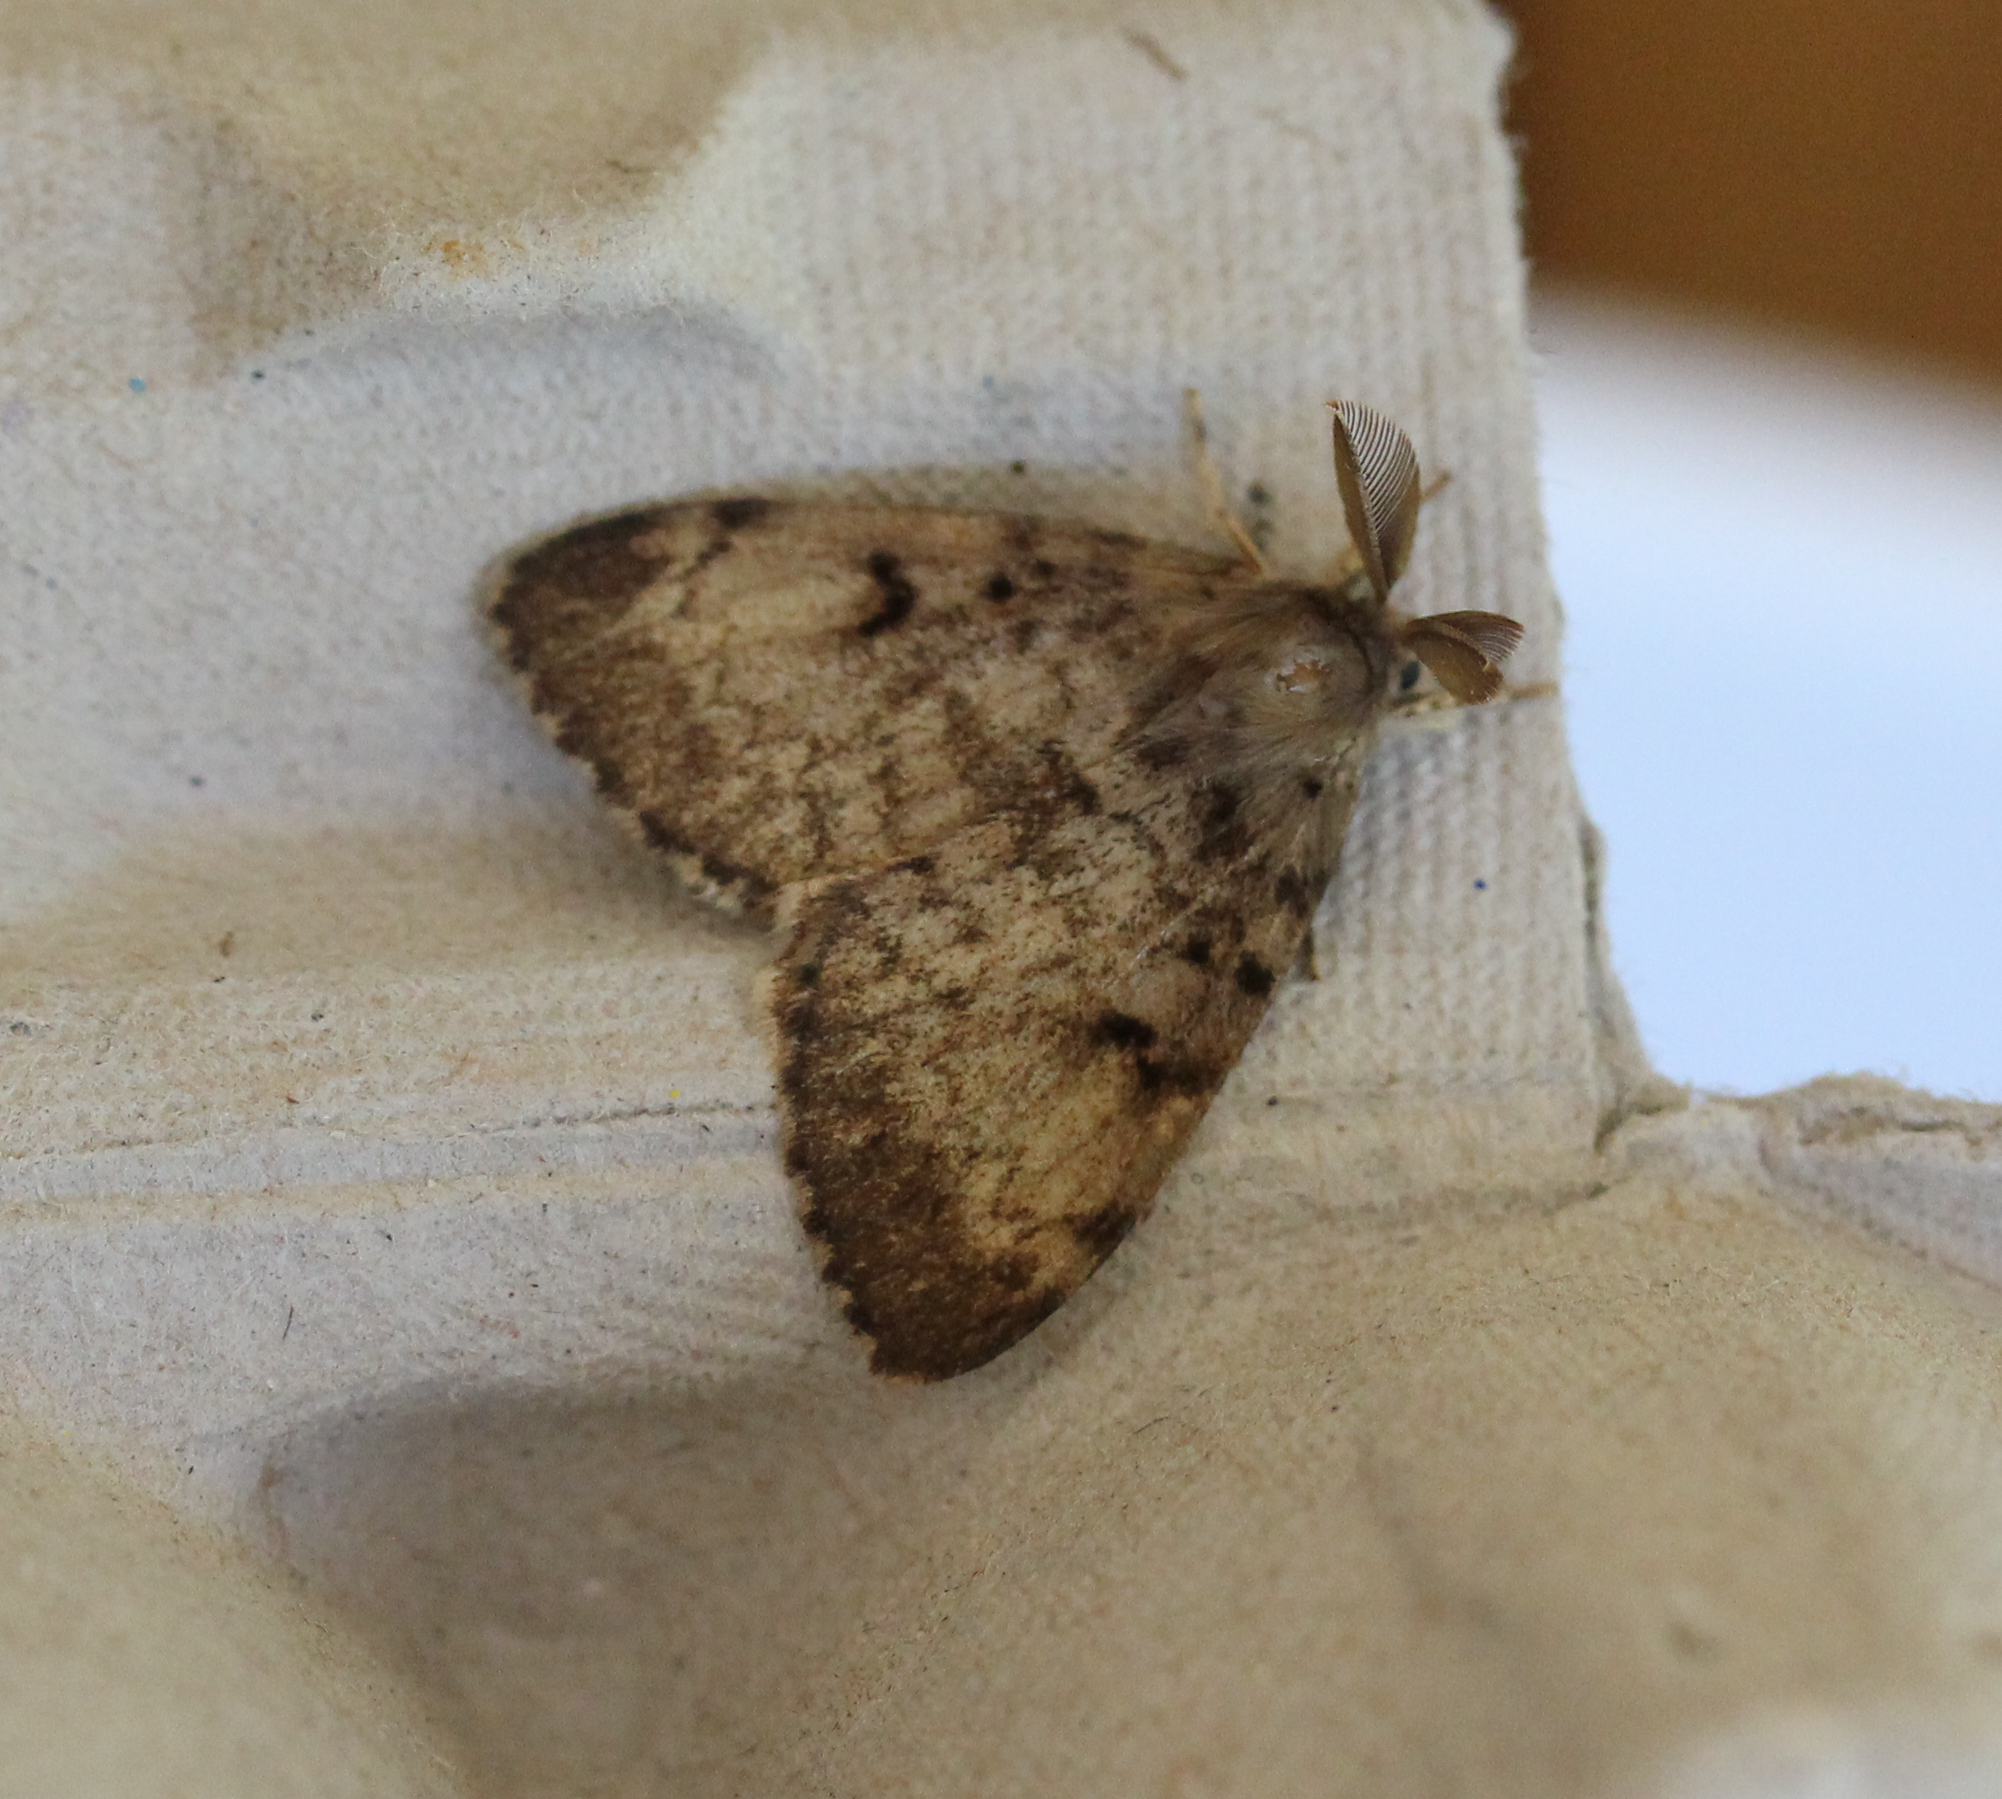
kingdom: Animalia
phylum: Arthropoda
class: Insecta
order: Lepidoptera
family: Erebidae
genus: Lymantria
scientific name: Lymantria dispar
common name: Gypsy moth
